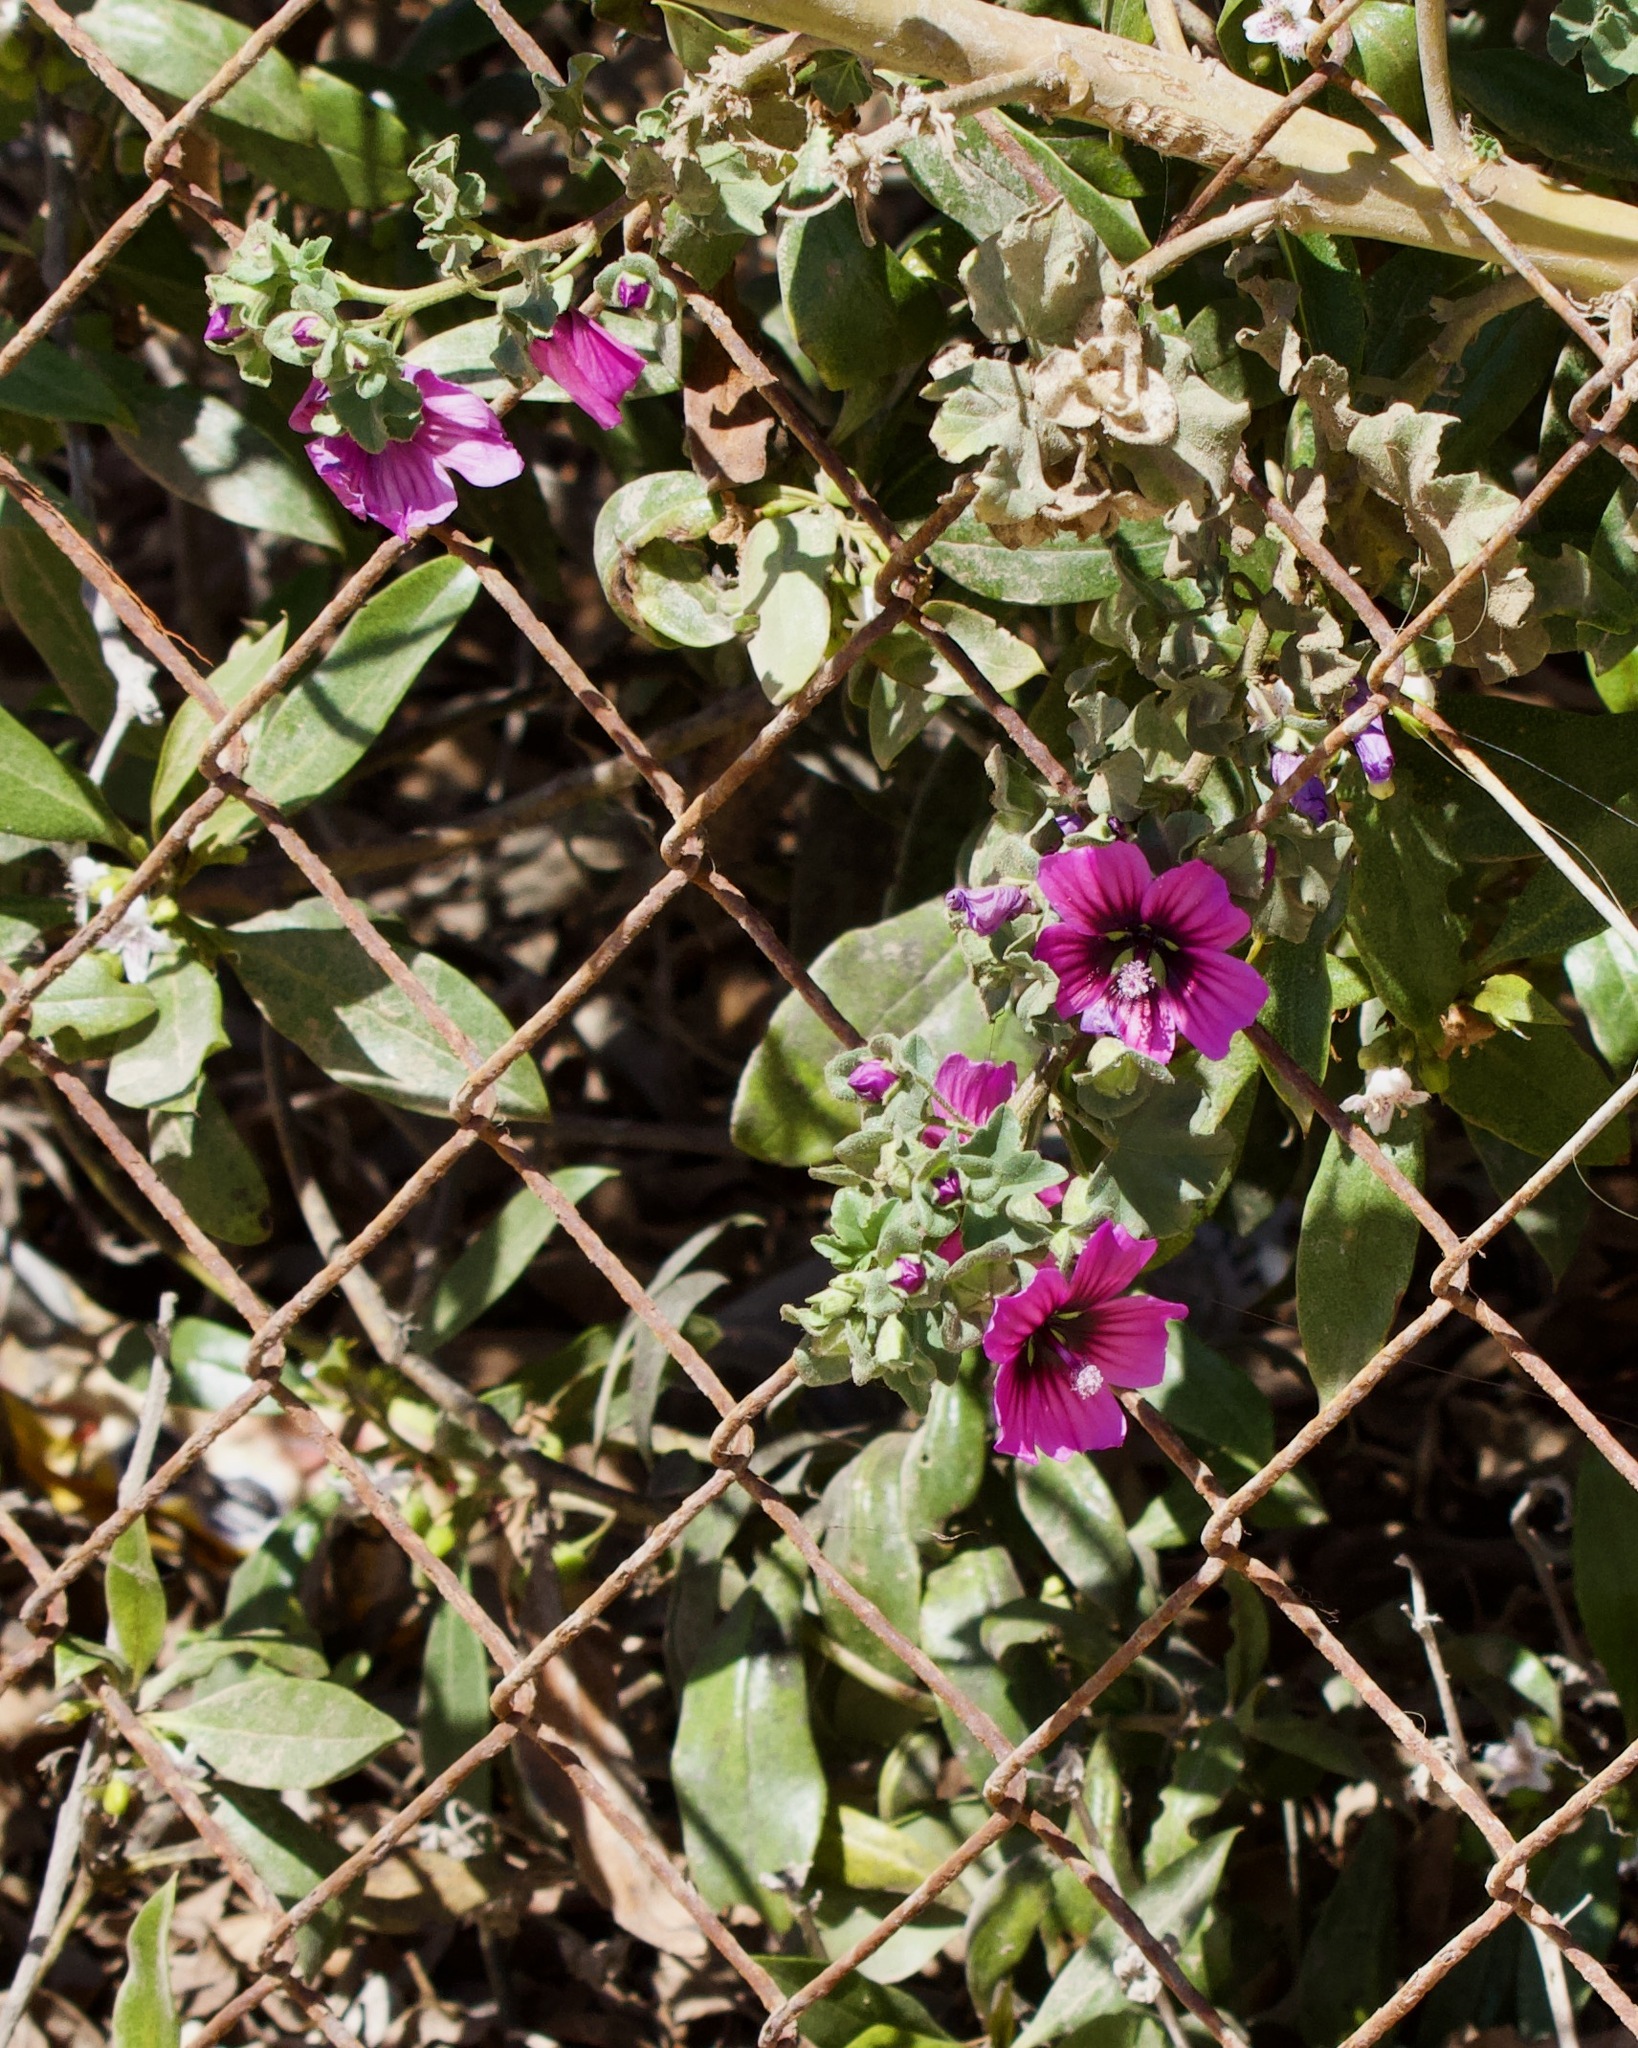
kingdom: Plantae
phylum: Tracheophyta
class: Magnoliopsida
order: Malvales
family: Malvaceae
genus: Malva
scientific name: Malva arborea
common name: Tree mallow
